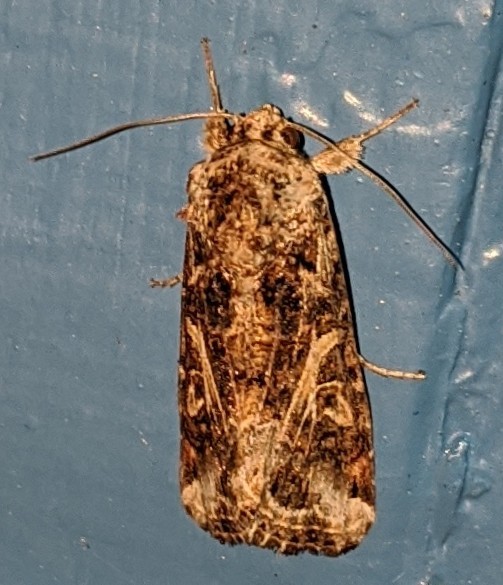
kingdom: Animalia
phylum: Arthropoda
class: Insecta
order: Lepidoptera
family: Noctuidae
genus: Spodoptera
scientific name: Spodoptera ornithogalli
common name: Yellow-striped armyworm
